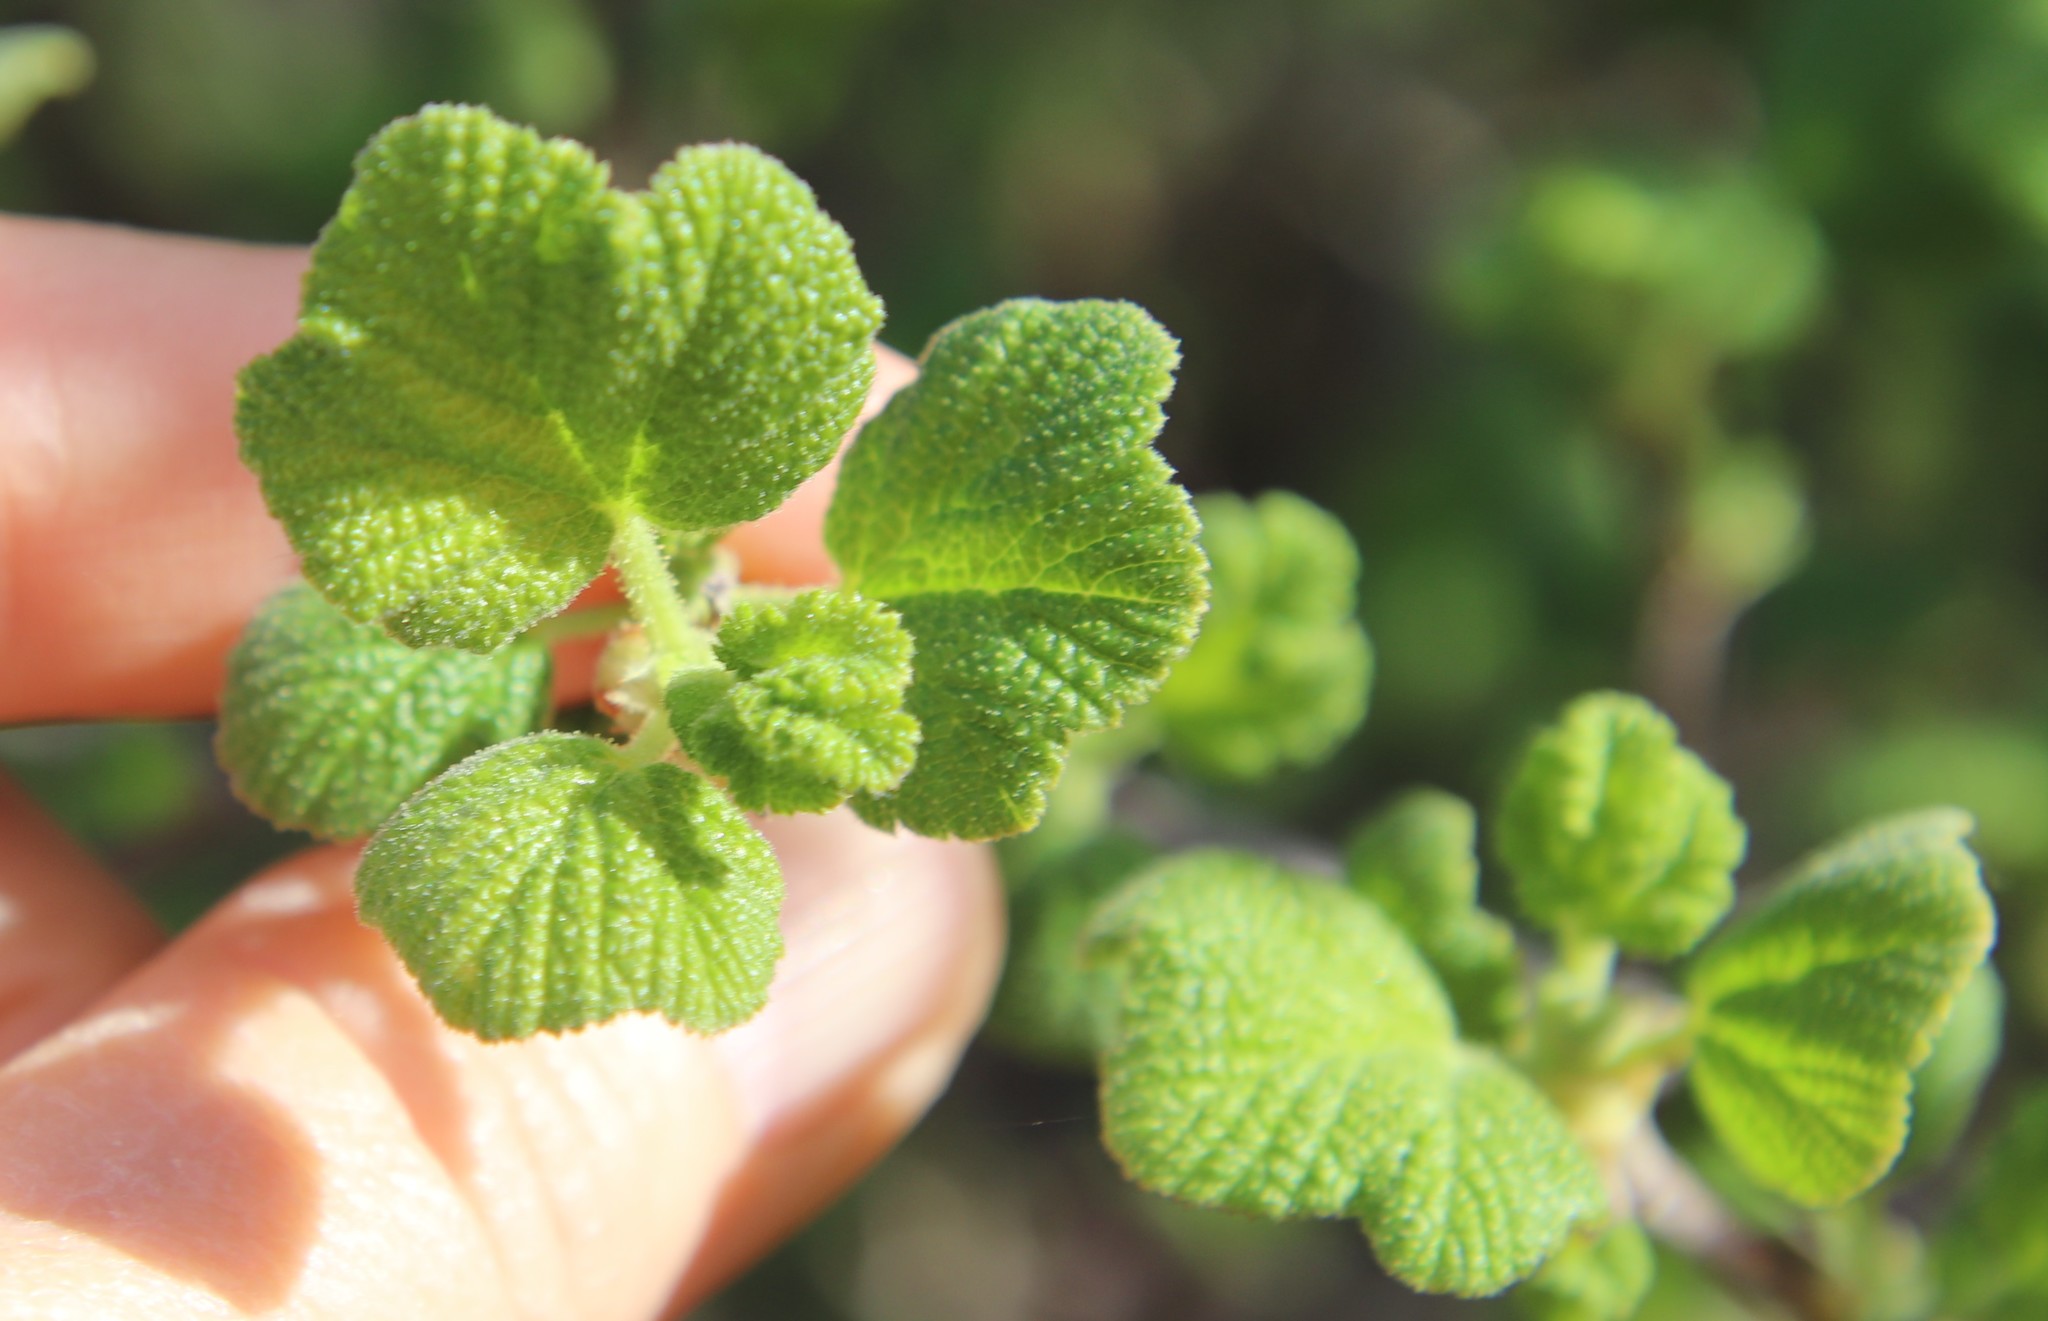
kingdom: Plantae
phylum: Tracheophyta
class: Magnoliopsida
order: Saxifragales
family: Grossulariaceae
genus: Ribes
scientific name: Ribes indecorum
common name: White-flower currant
